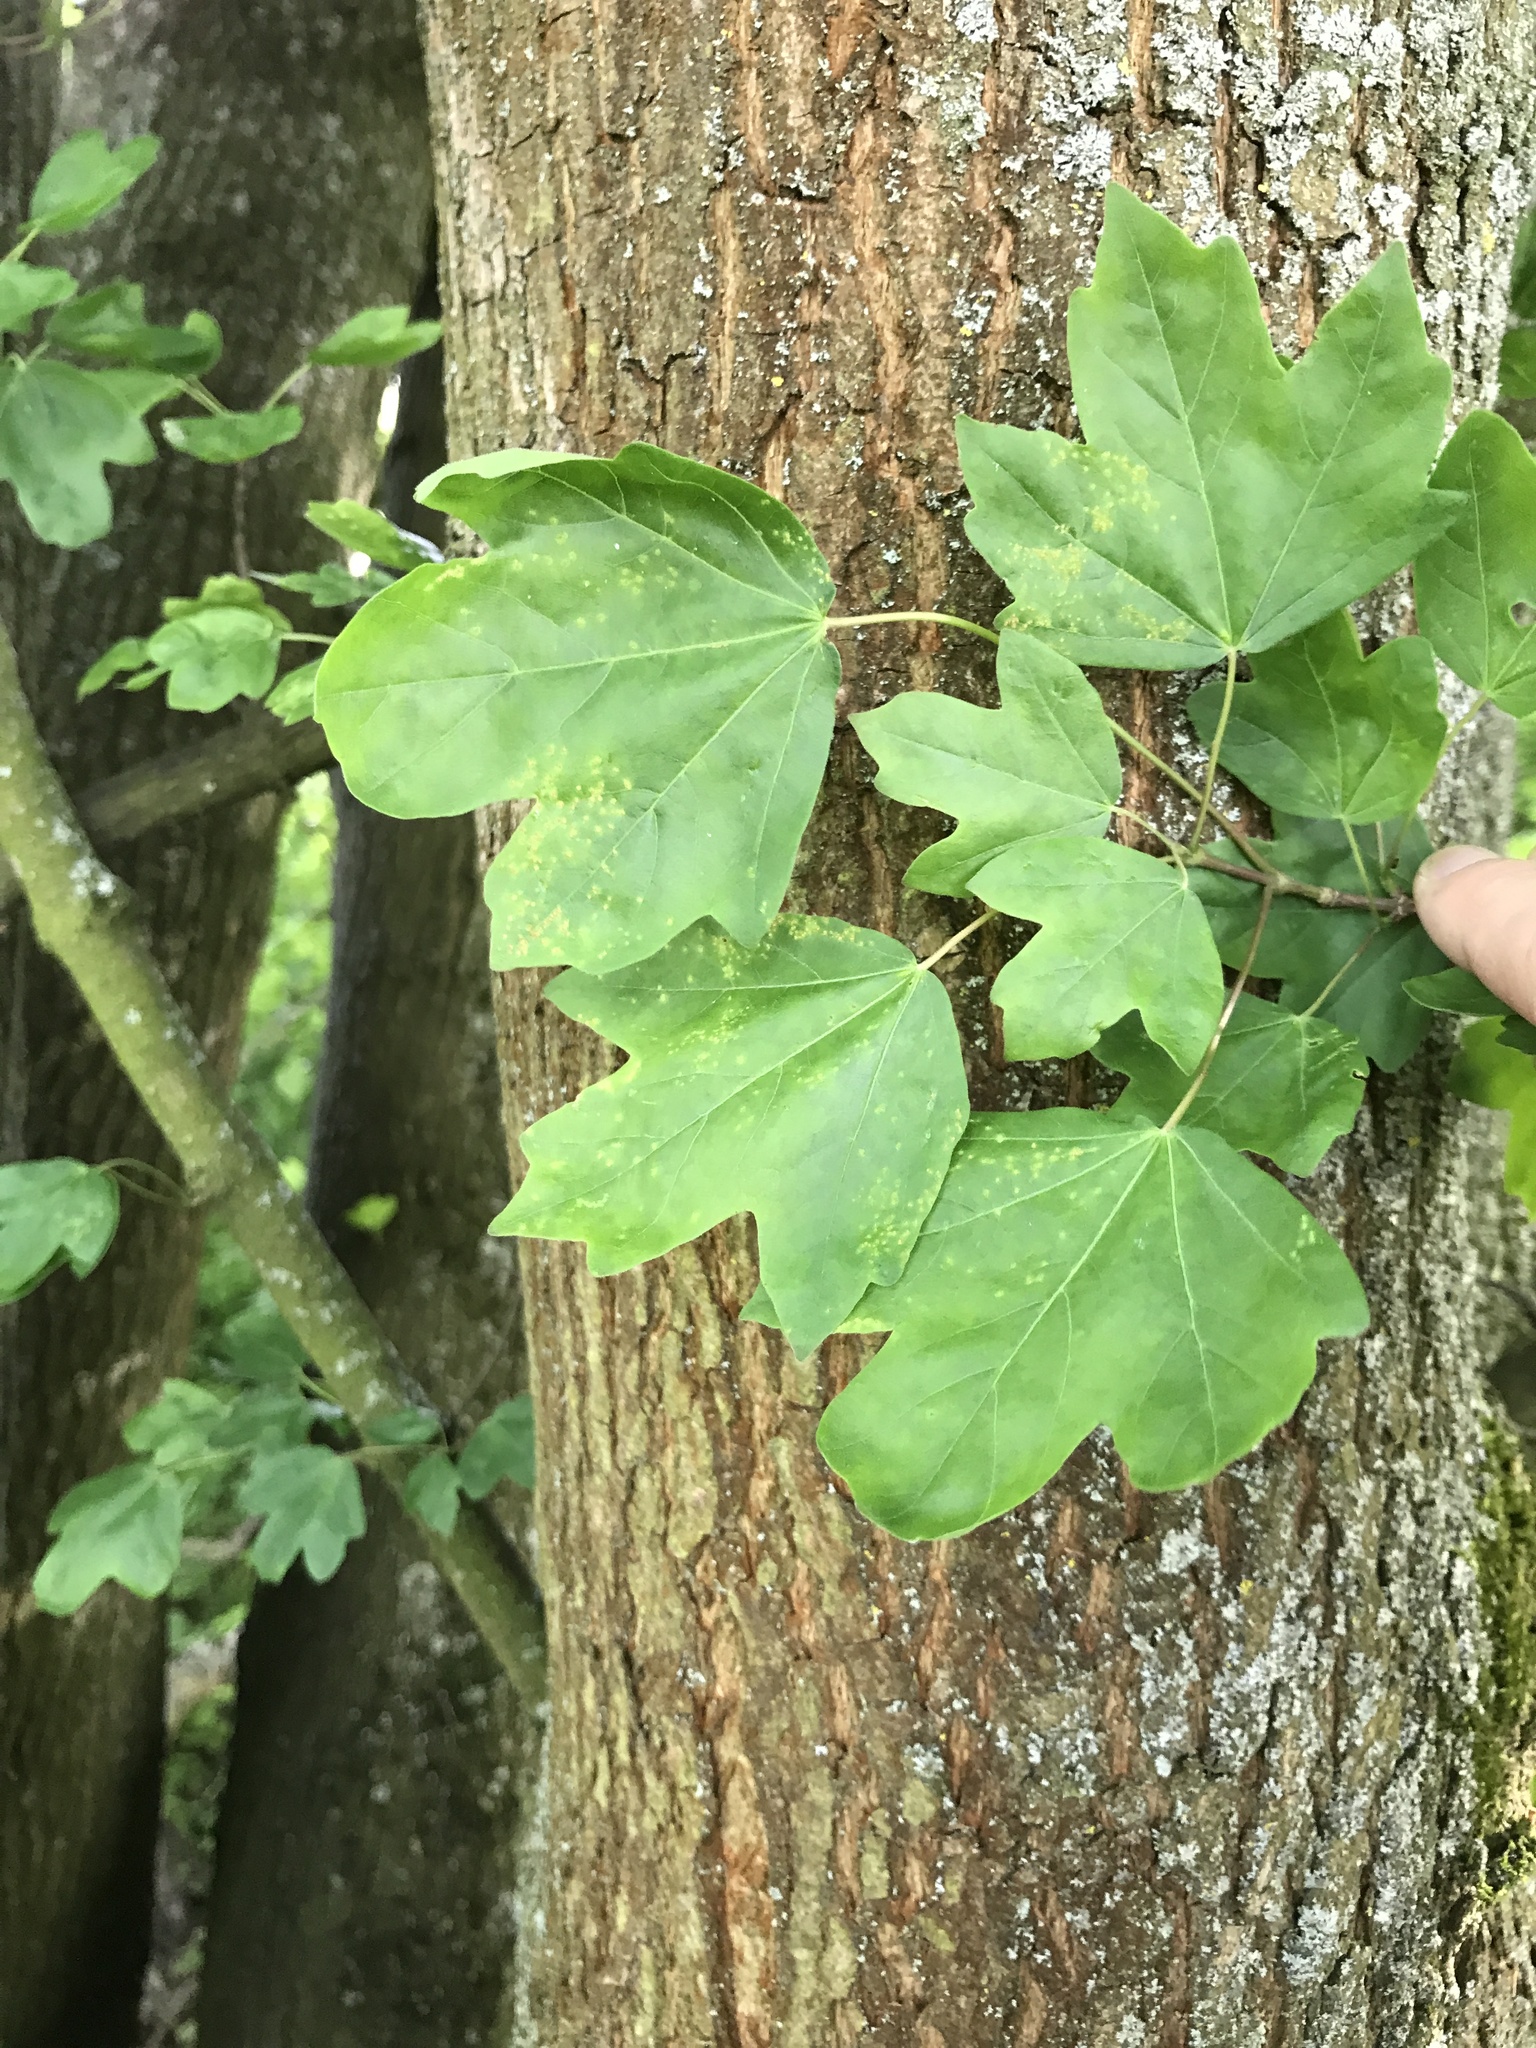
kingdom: Plantae
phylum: Tracheophyta
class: Magnoliopsida
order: Sapindales
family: Sapindaceae
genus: Acer
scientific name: Acer campestre
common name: Field maple
